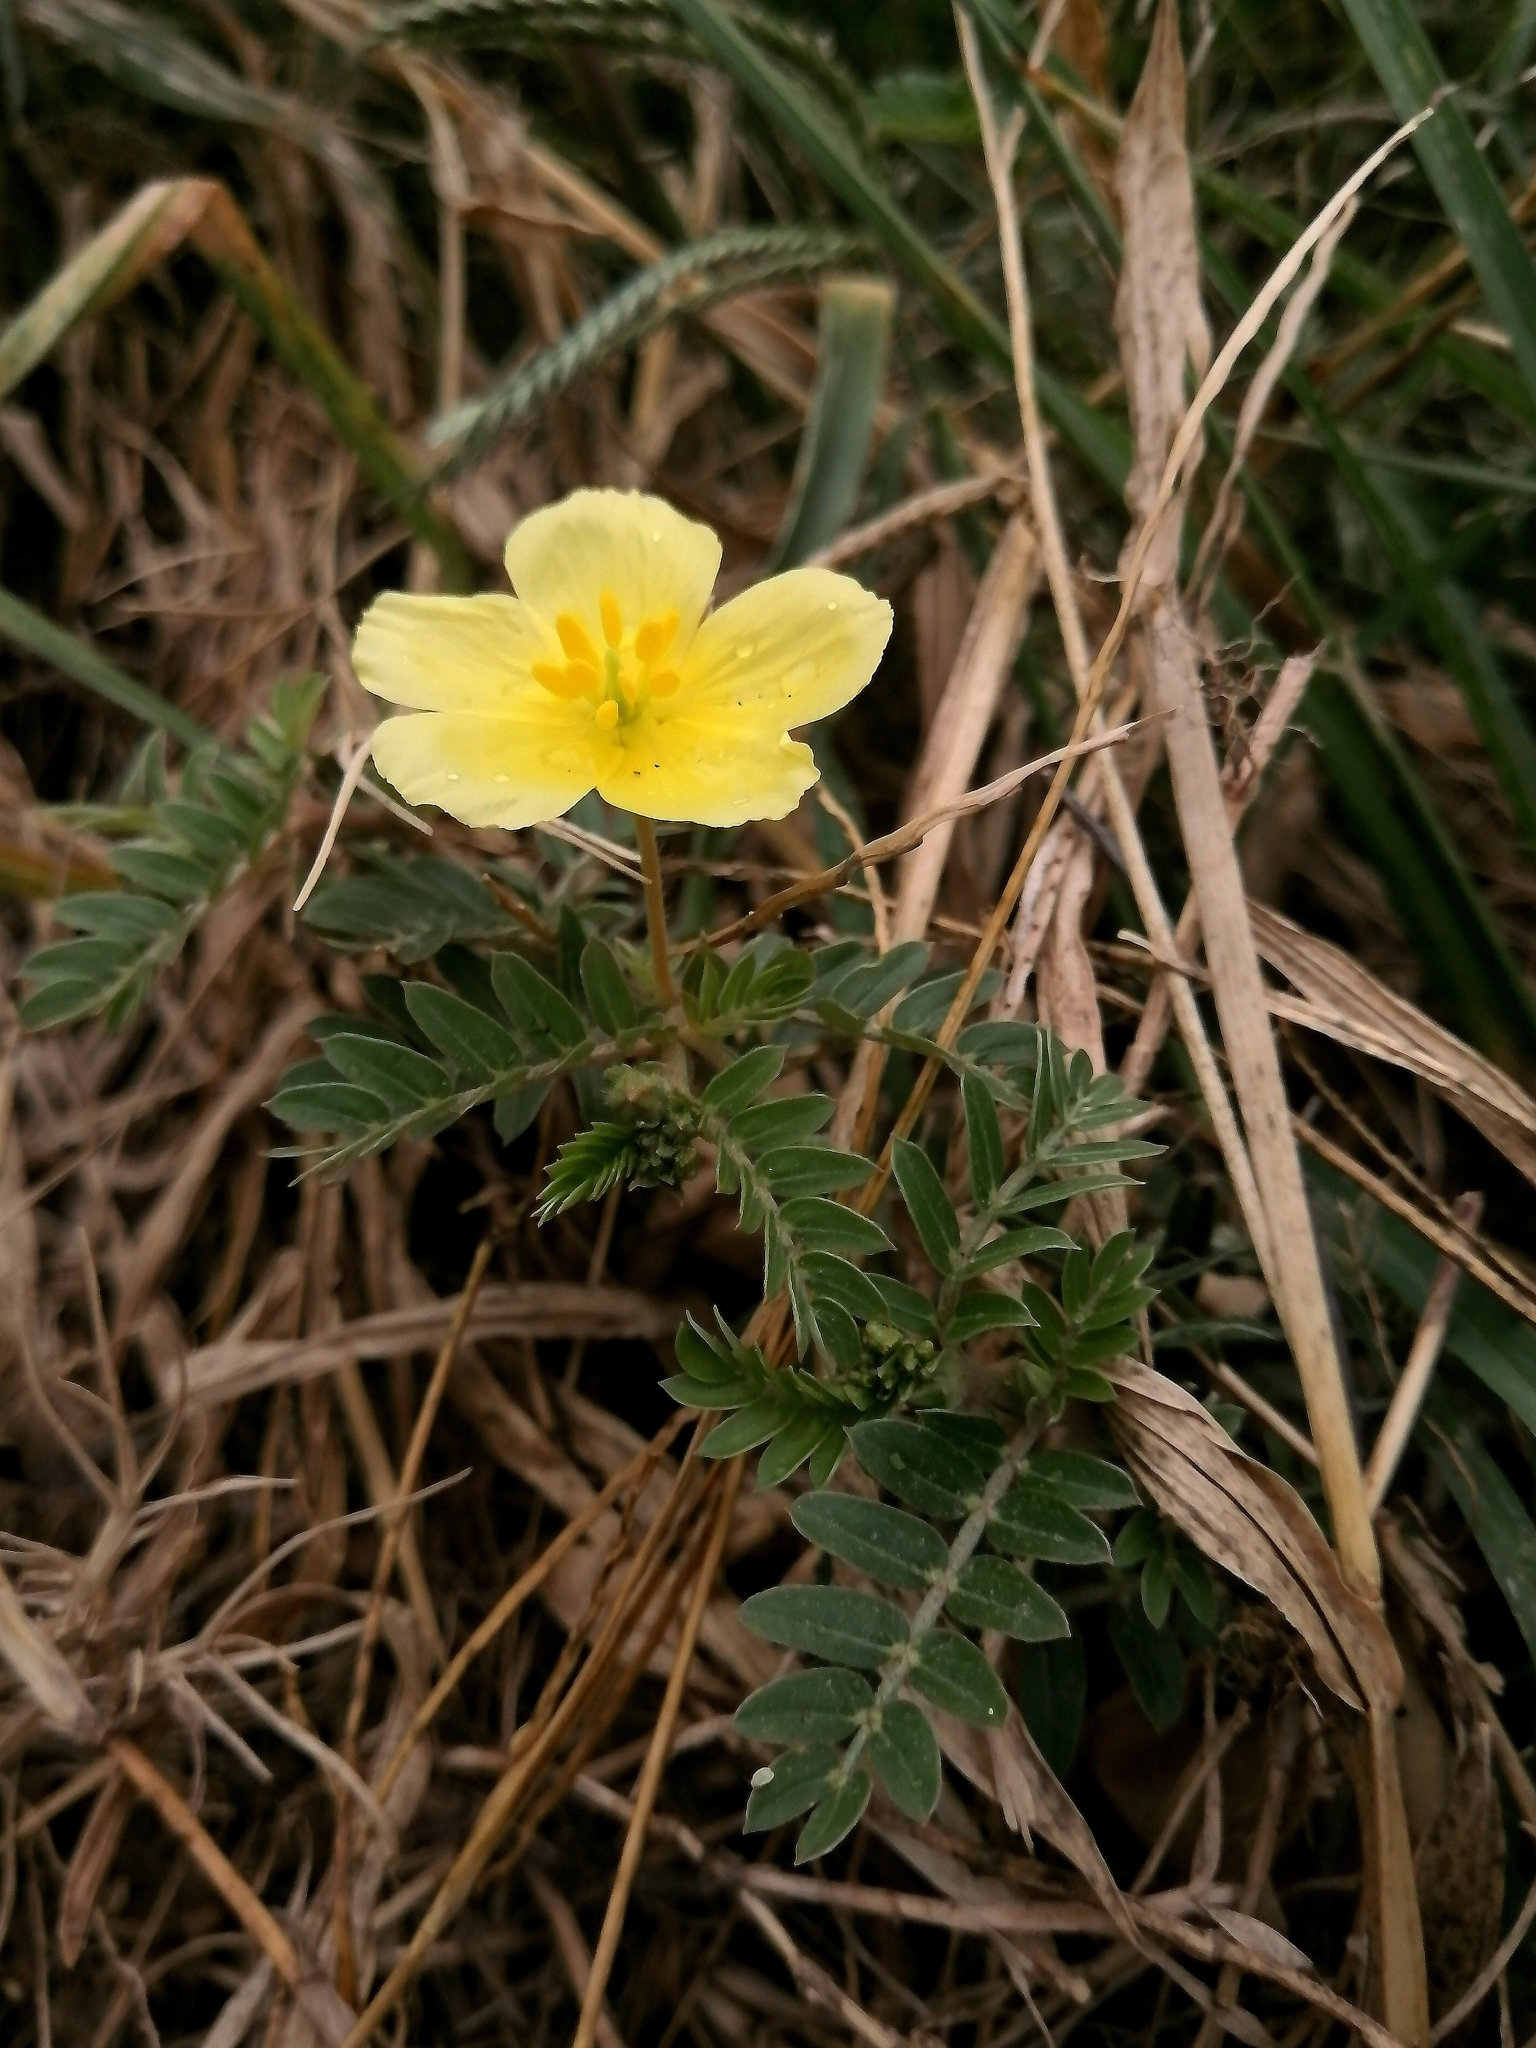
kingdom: Plantae
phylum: Tracheophyta
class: Magnoliopsida
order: Zygophyllales
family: Zygophyllaceae
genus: Tribulus
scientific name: Tribulus cistoides
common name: Jamaican feverplant
